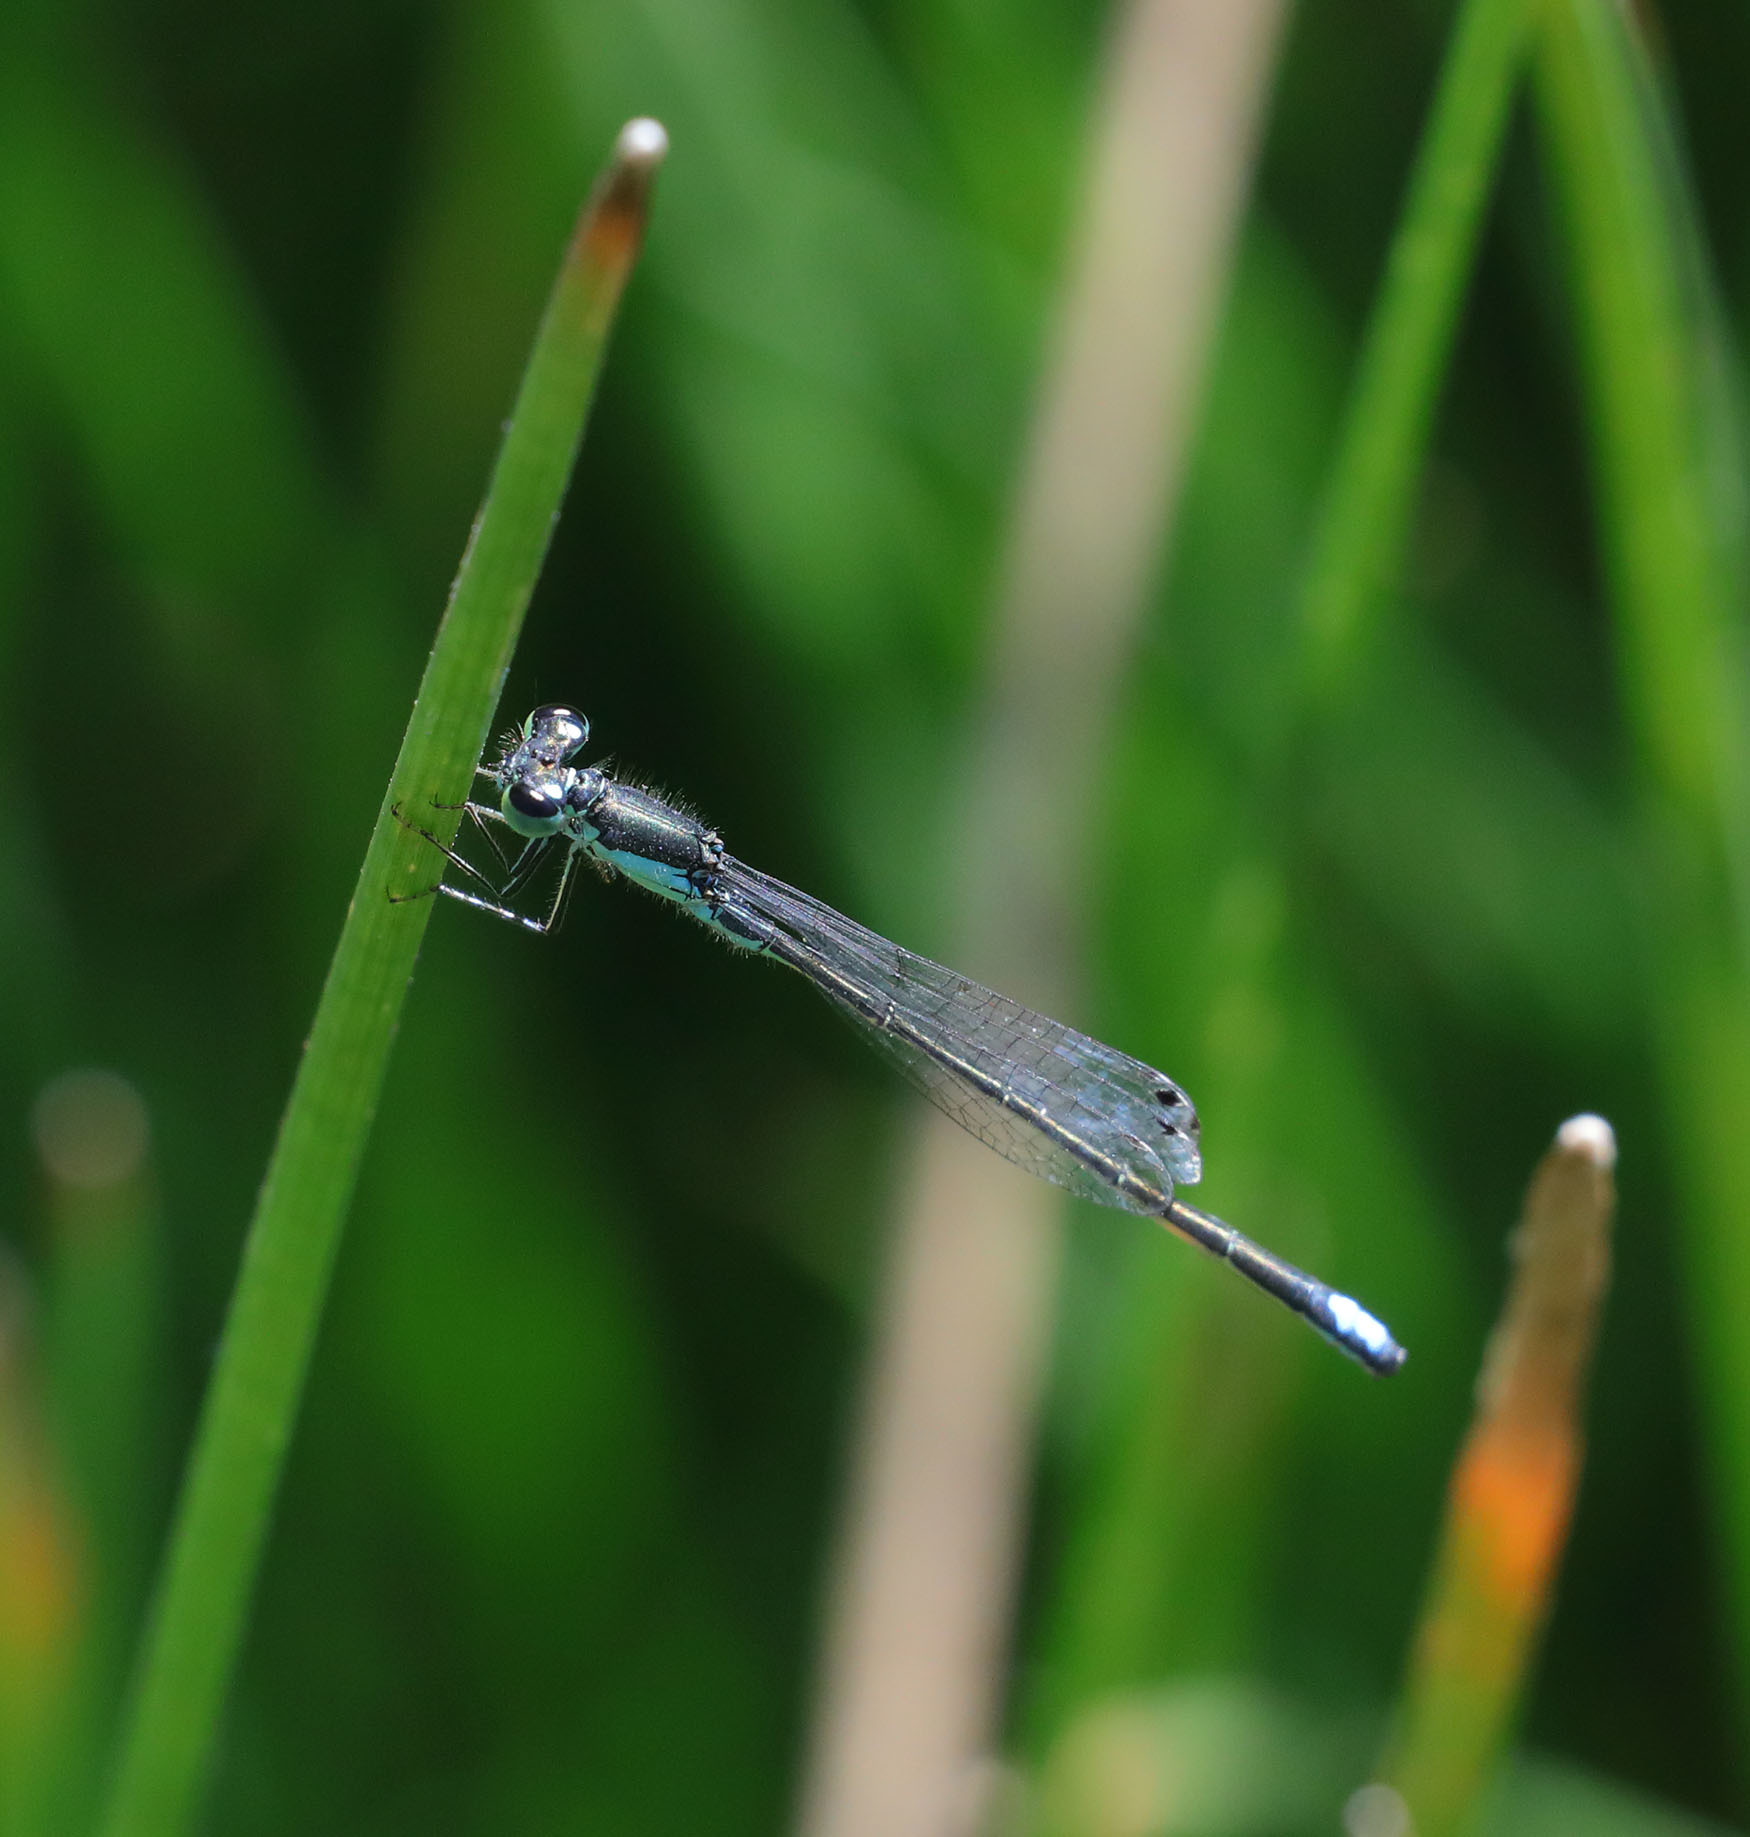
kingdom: Animalia
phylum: Arthropoda
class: Insecta
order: Odonata
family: Coenagrionidae
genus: Ischnura
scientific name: Ischnura denticollis
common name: Black-fronted forktail
